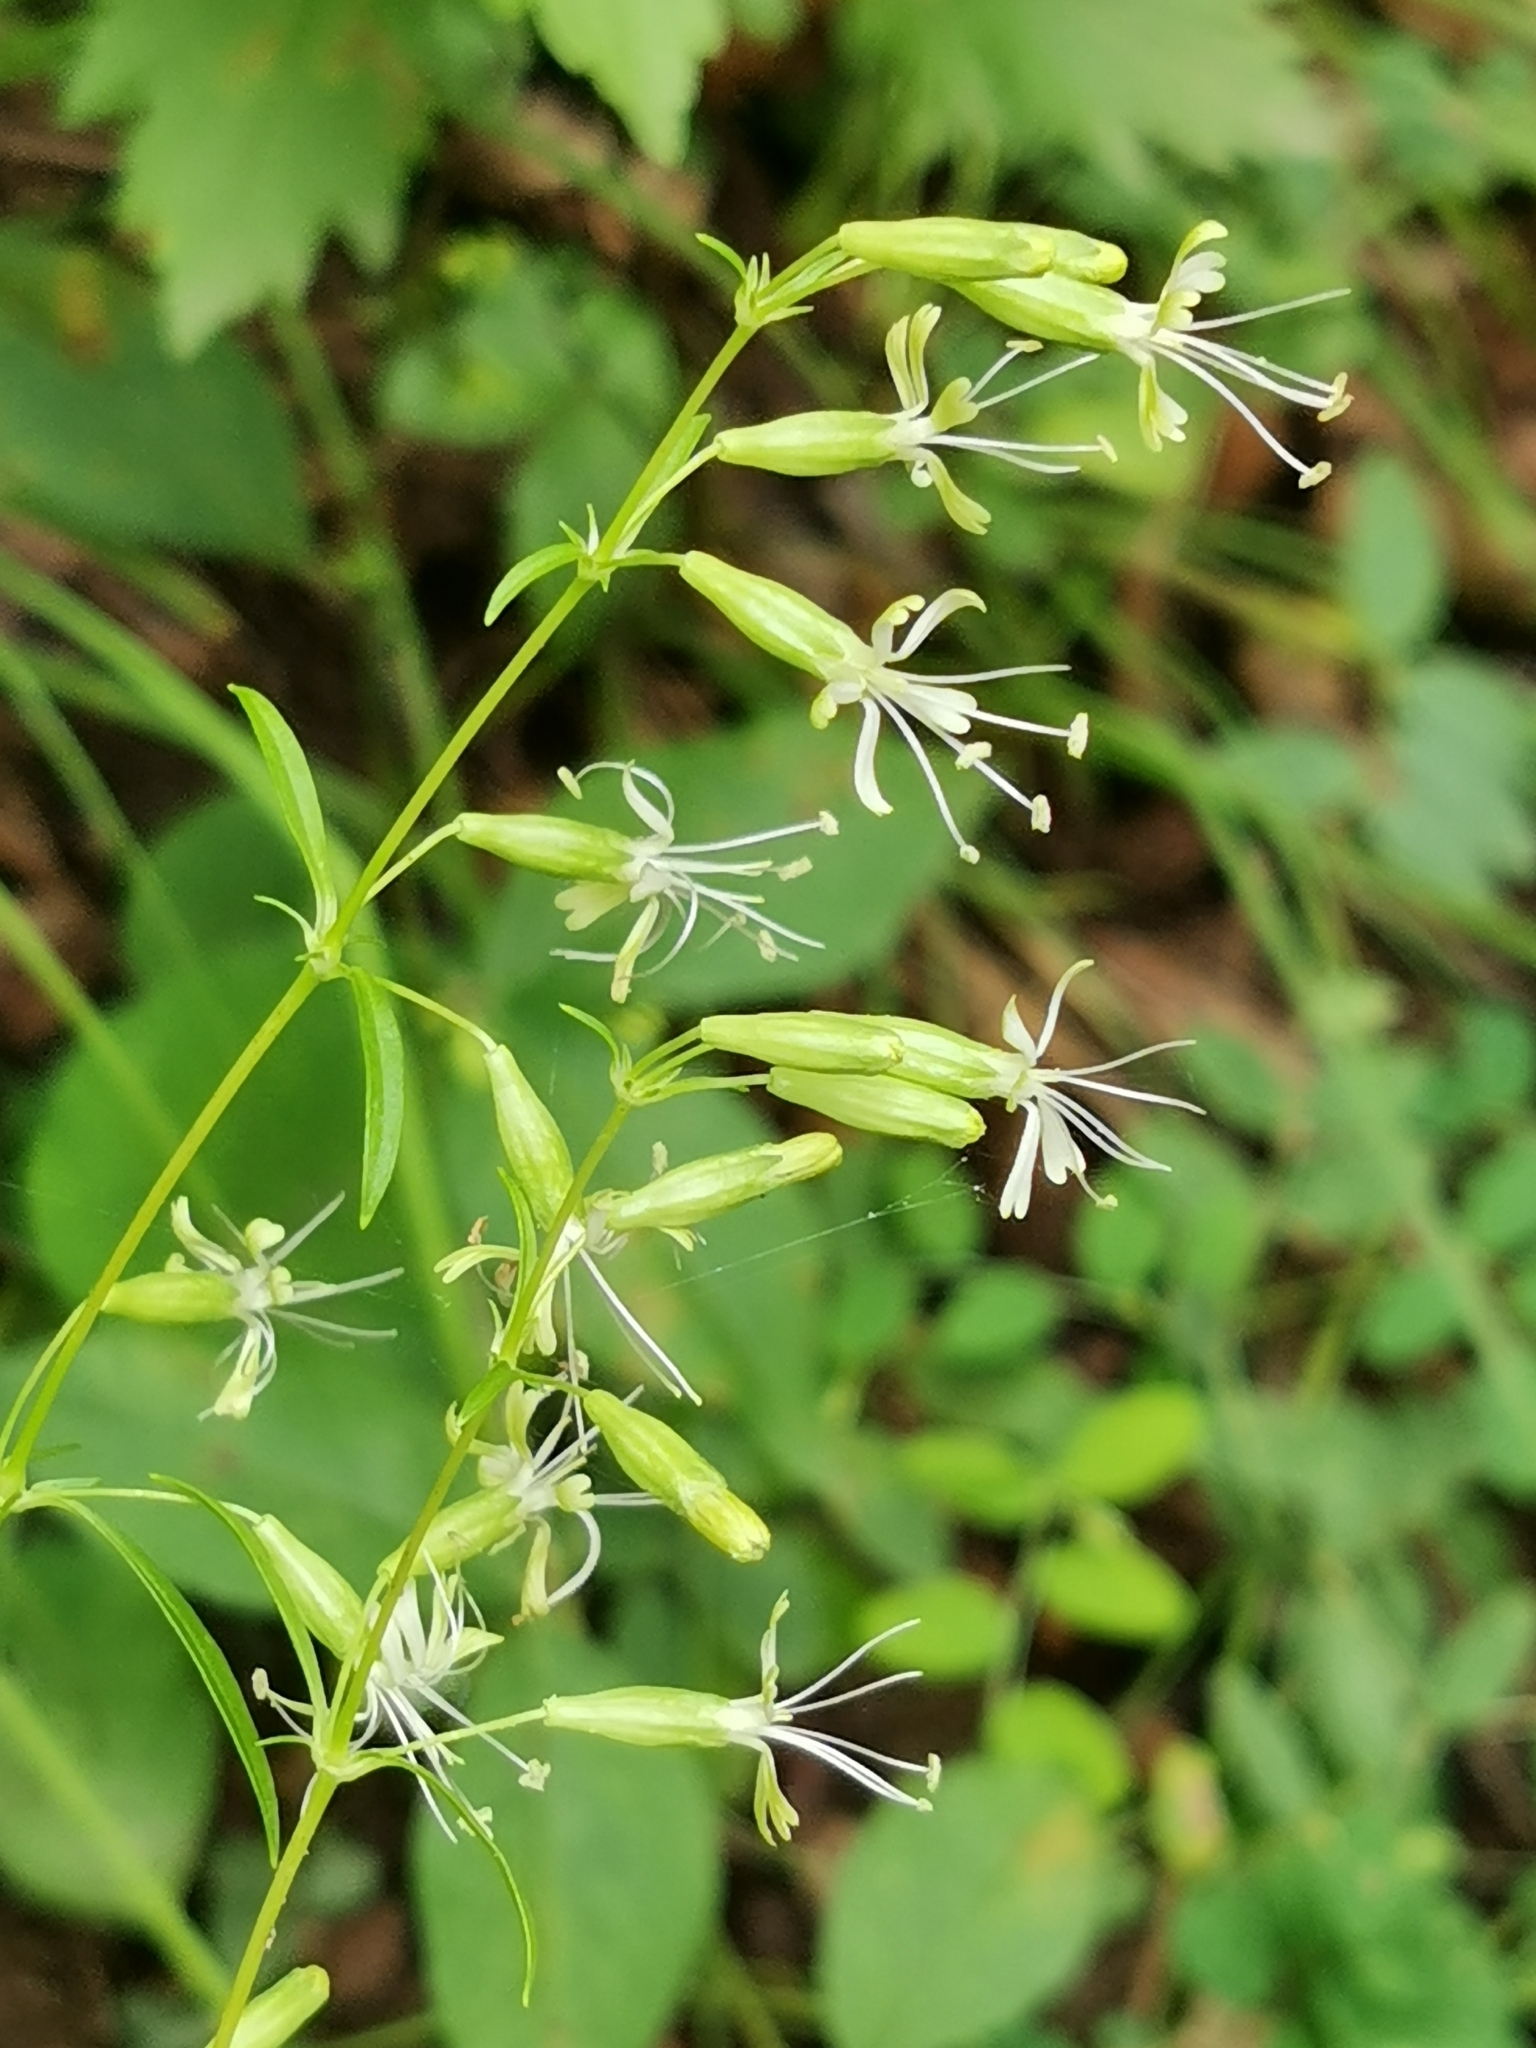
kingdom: Plantae
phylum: Tracheophyta
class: Magnoliopsida
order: Caryophyllales
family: Caryophyllaceae
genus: Silene
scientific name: Silene koreana
